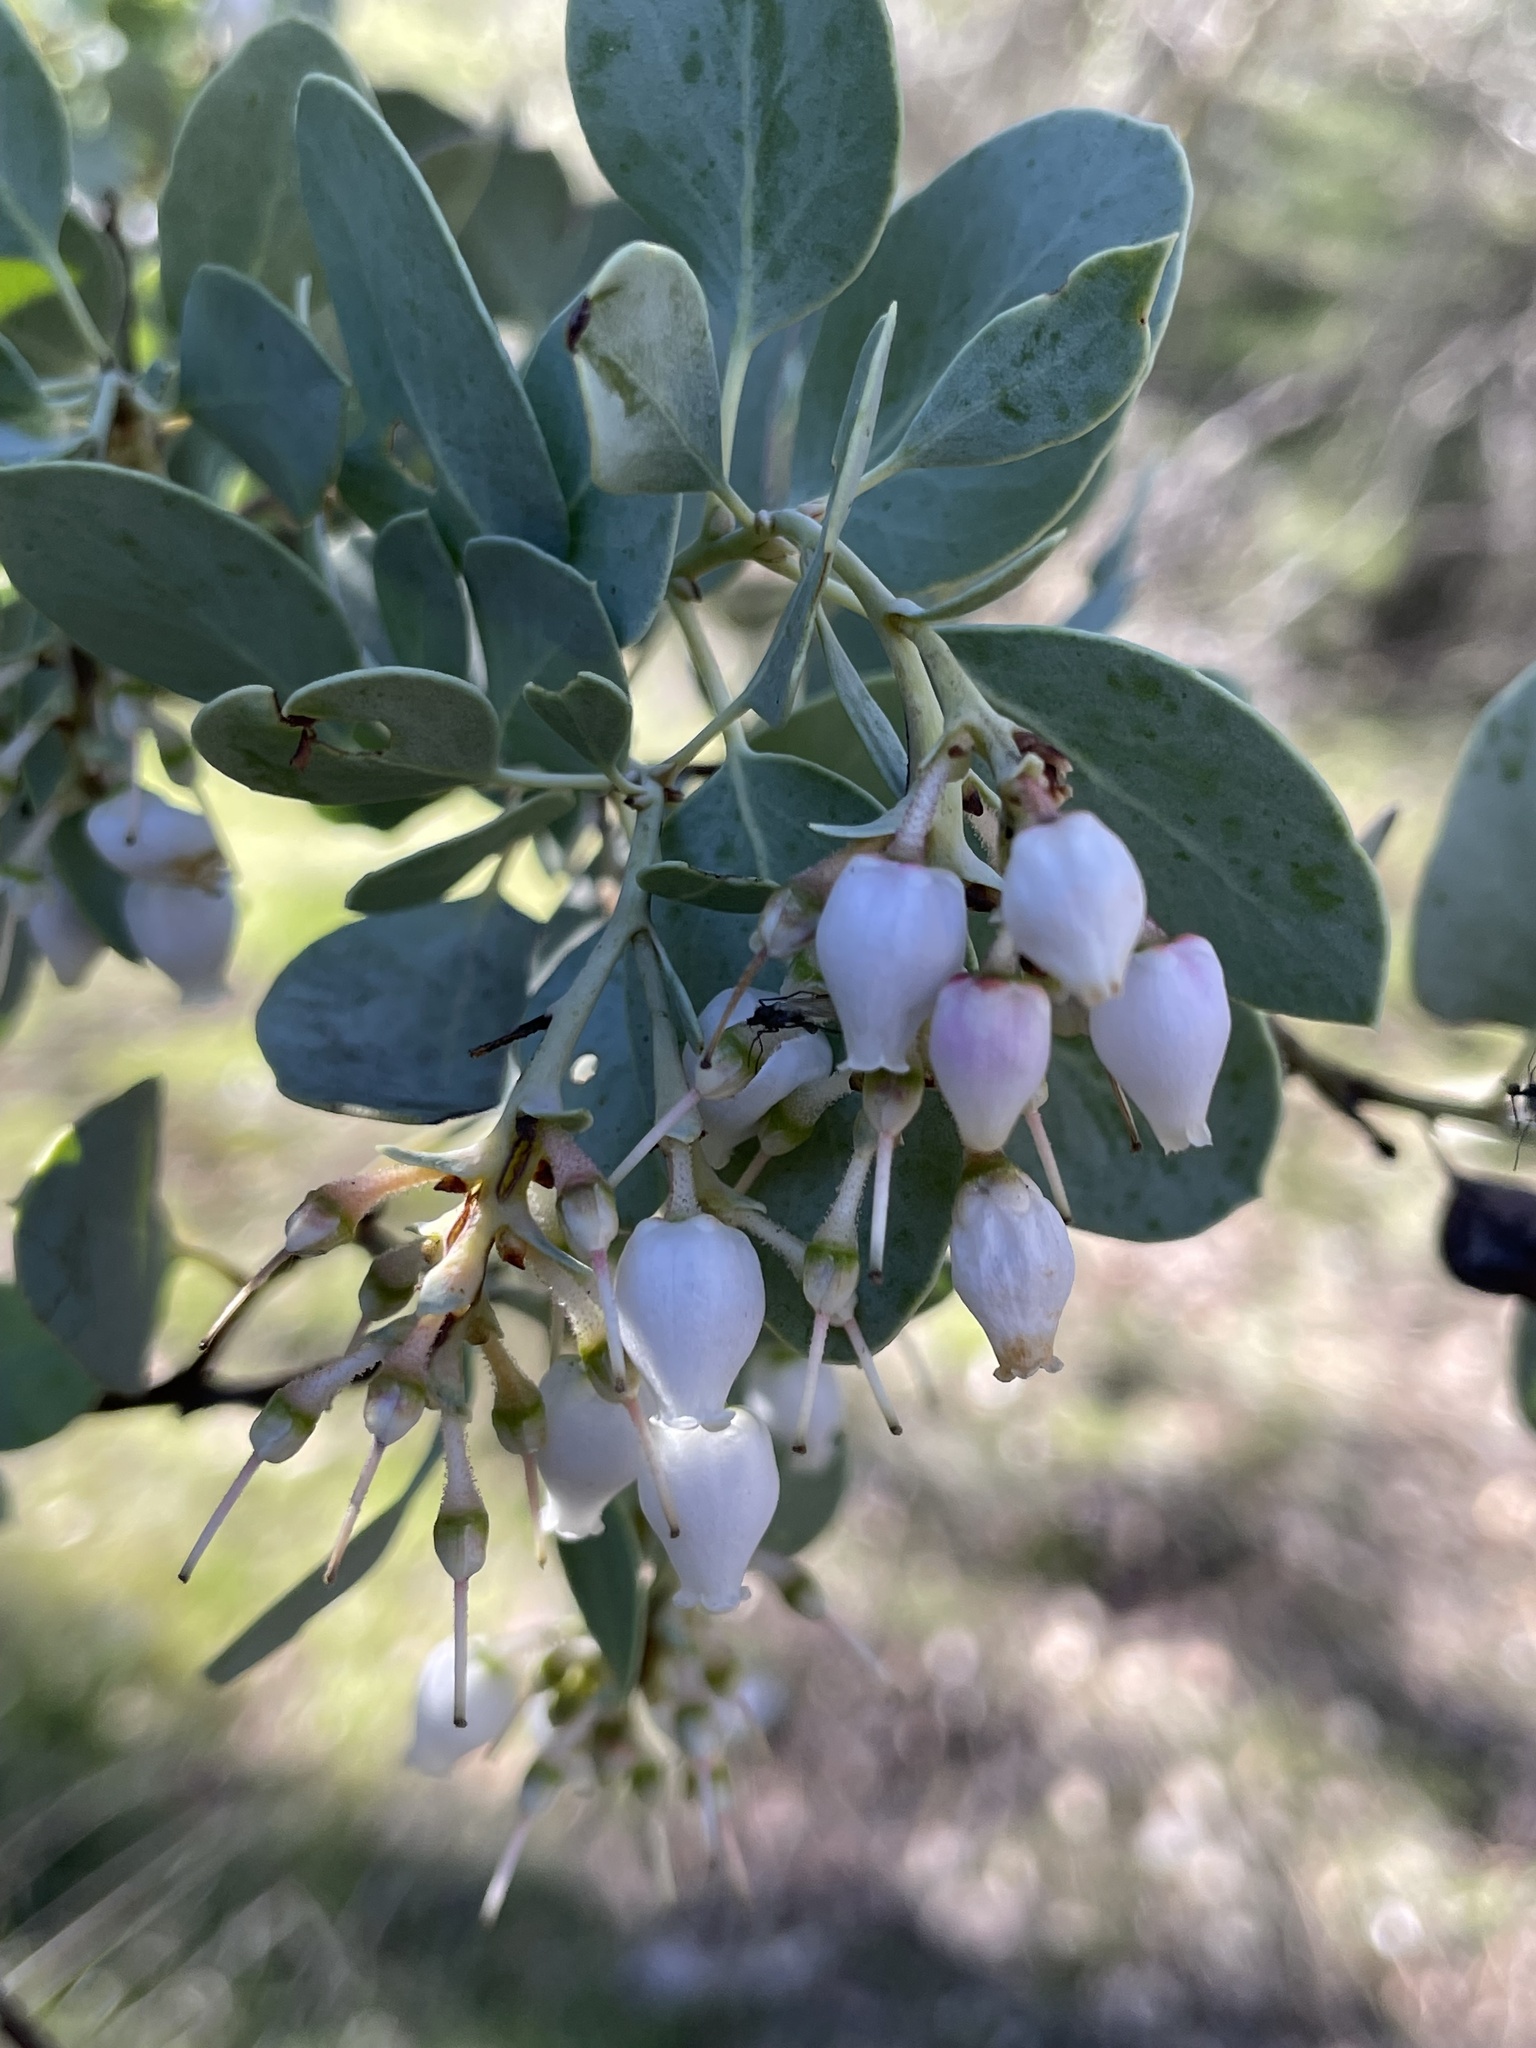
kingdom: Plantae
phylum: Tracheophyta
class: Magnoliopsida
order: Ericales
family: Ericaceae
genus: Arctostaphylos
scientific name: Arctostaphylos glauca
